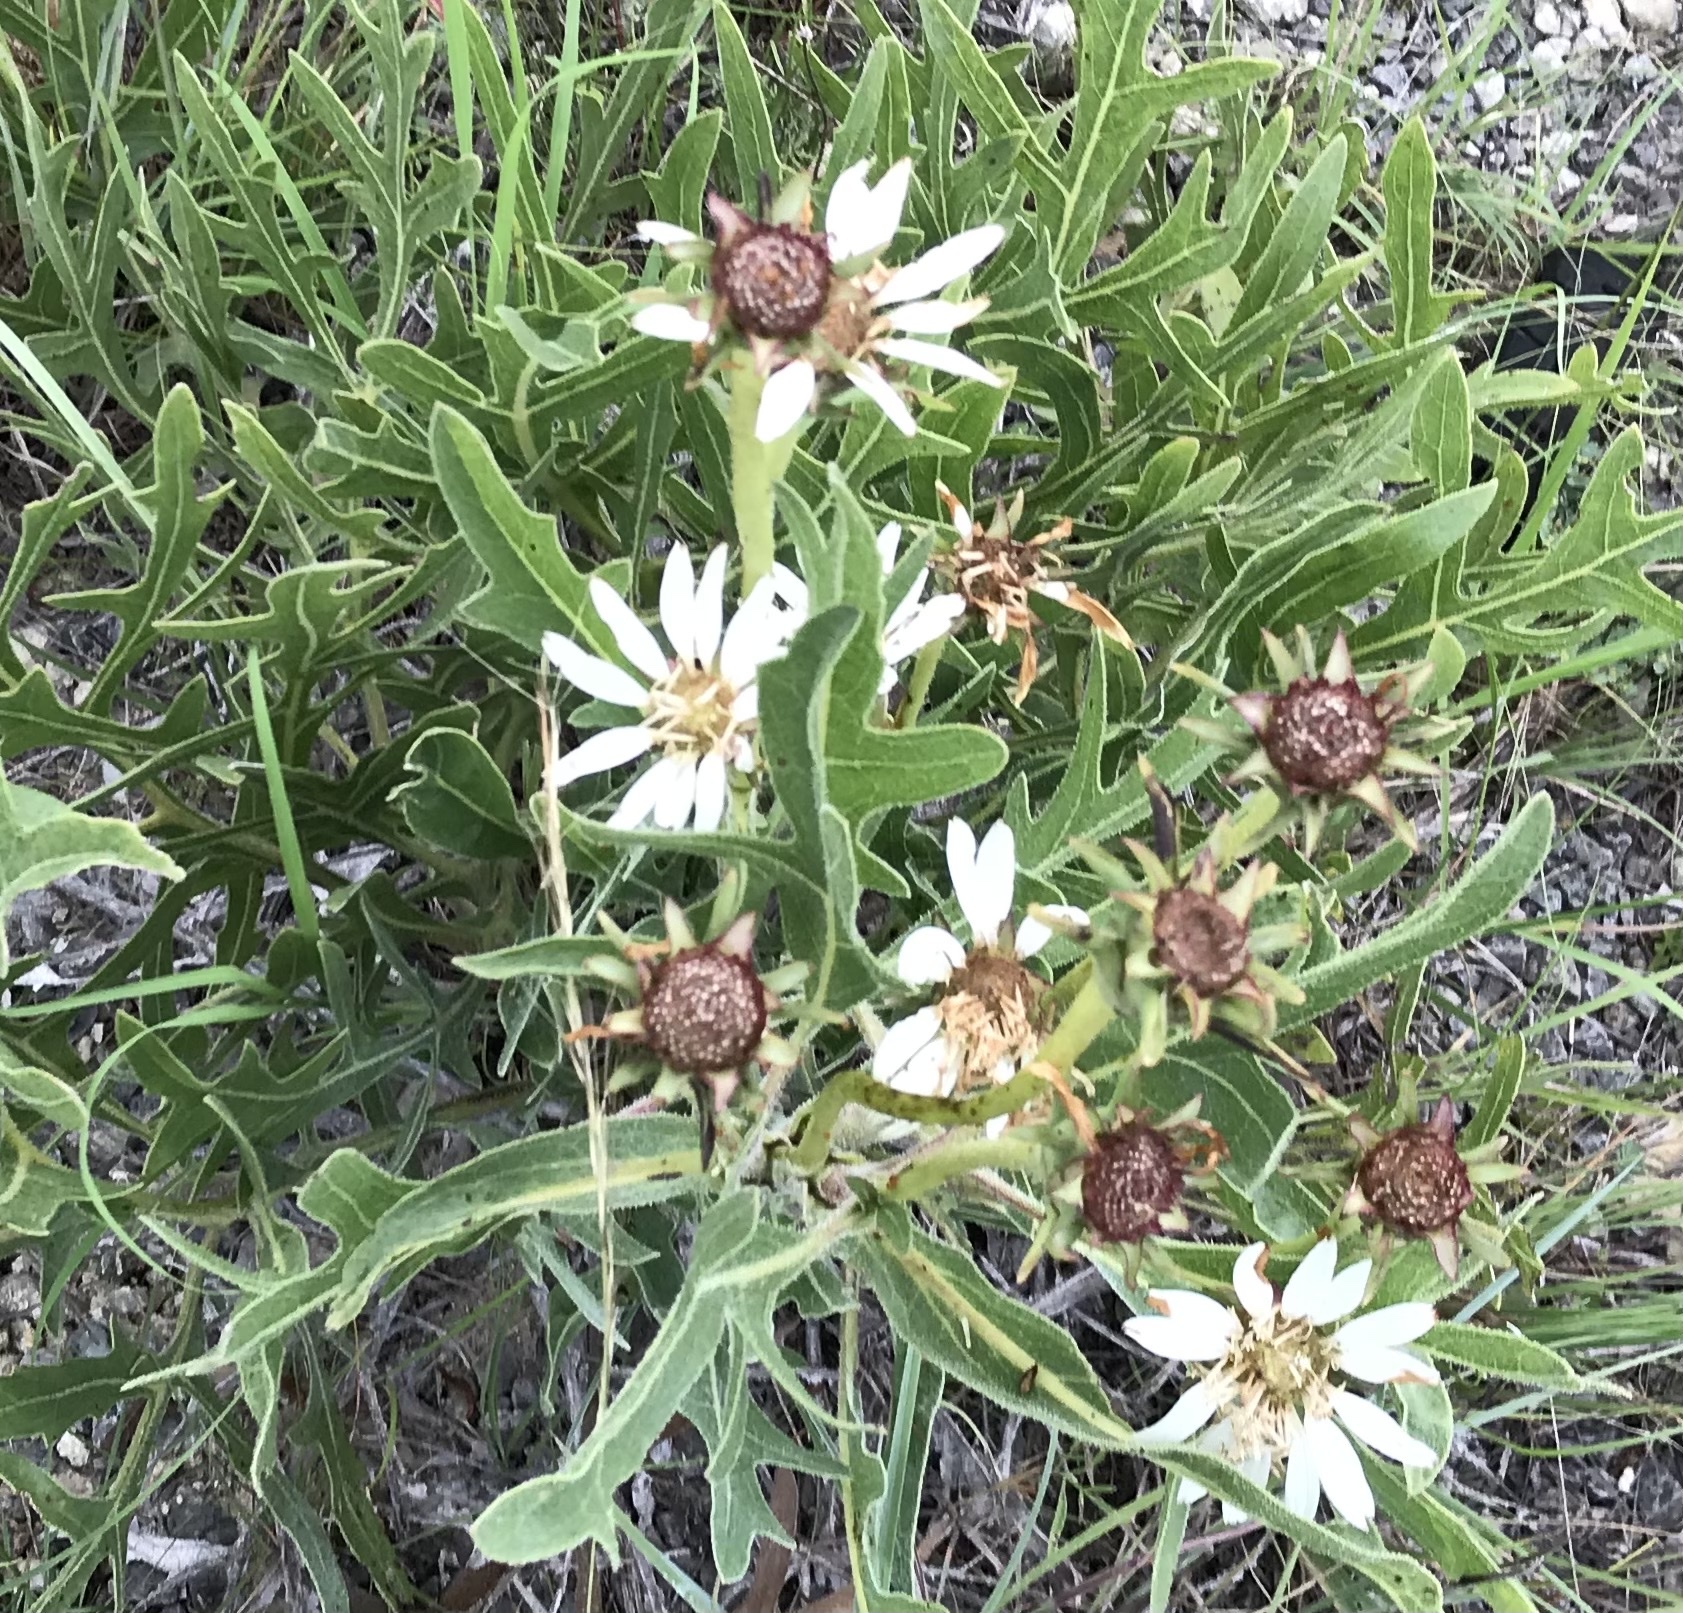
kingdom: Plantae
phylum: Tracheophyta
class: Magnoliopsida
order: Asterales
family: Asteraceae
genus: Silphium
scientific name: Silphium albiflorum
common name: White rosinweed
